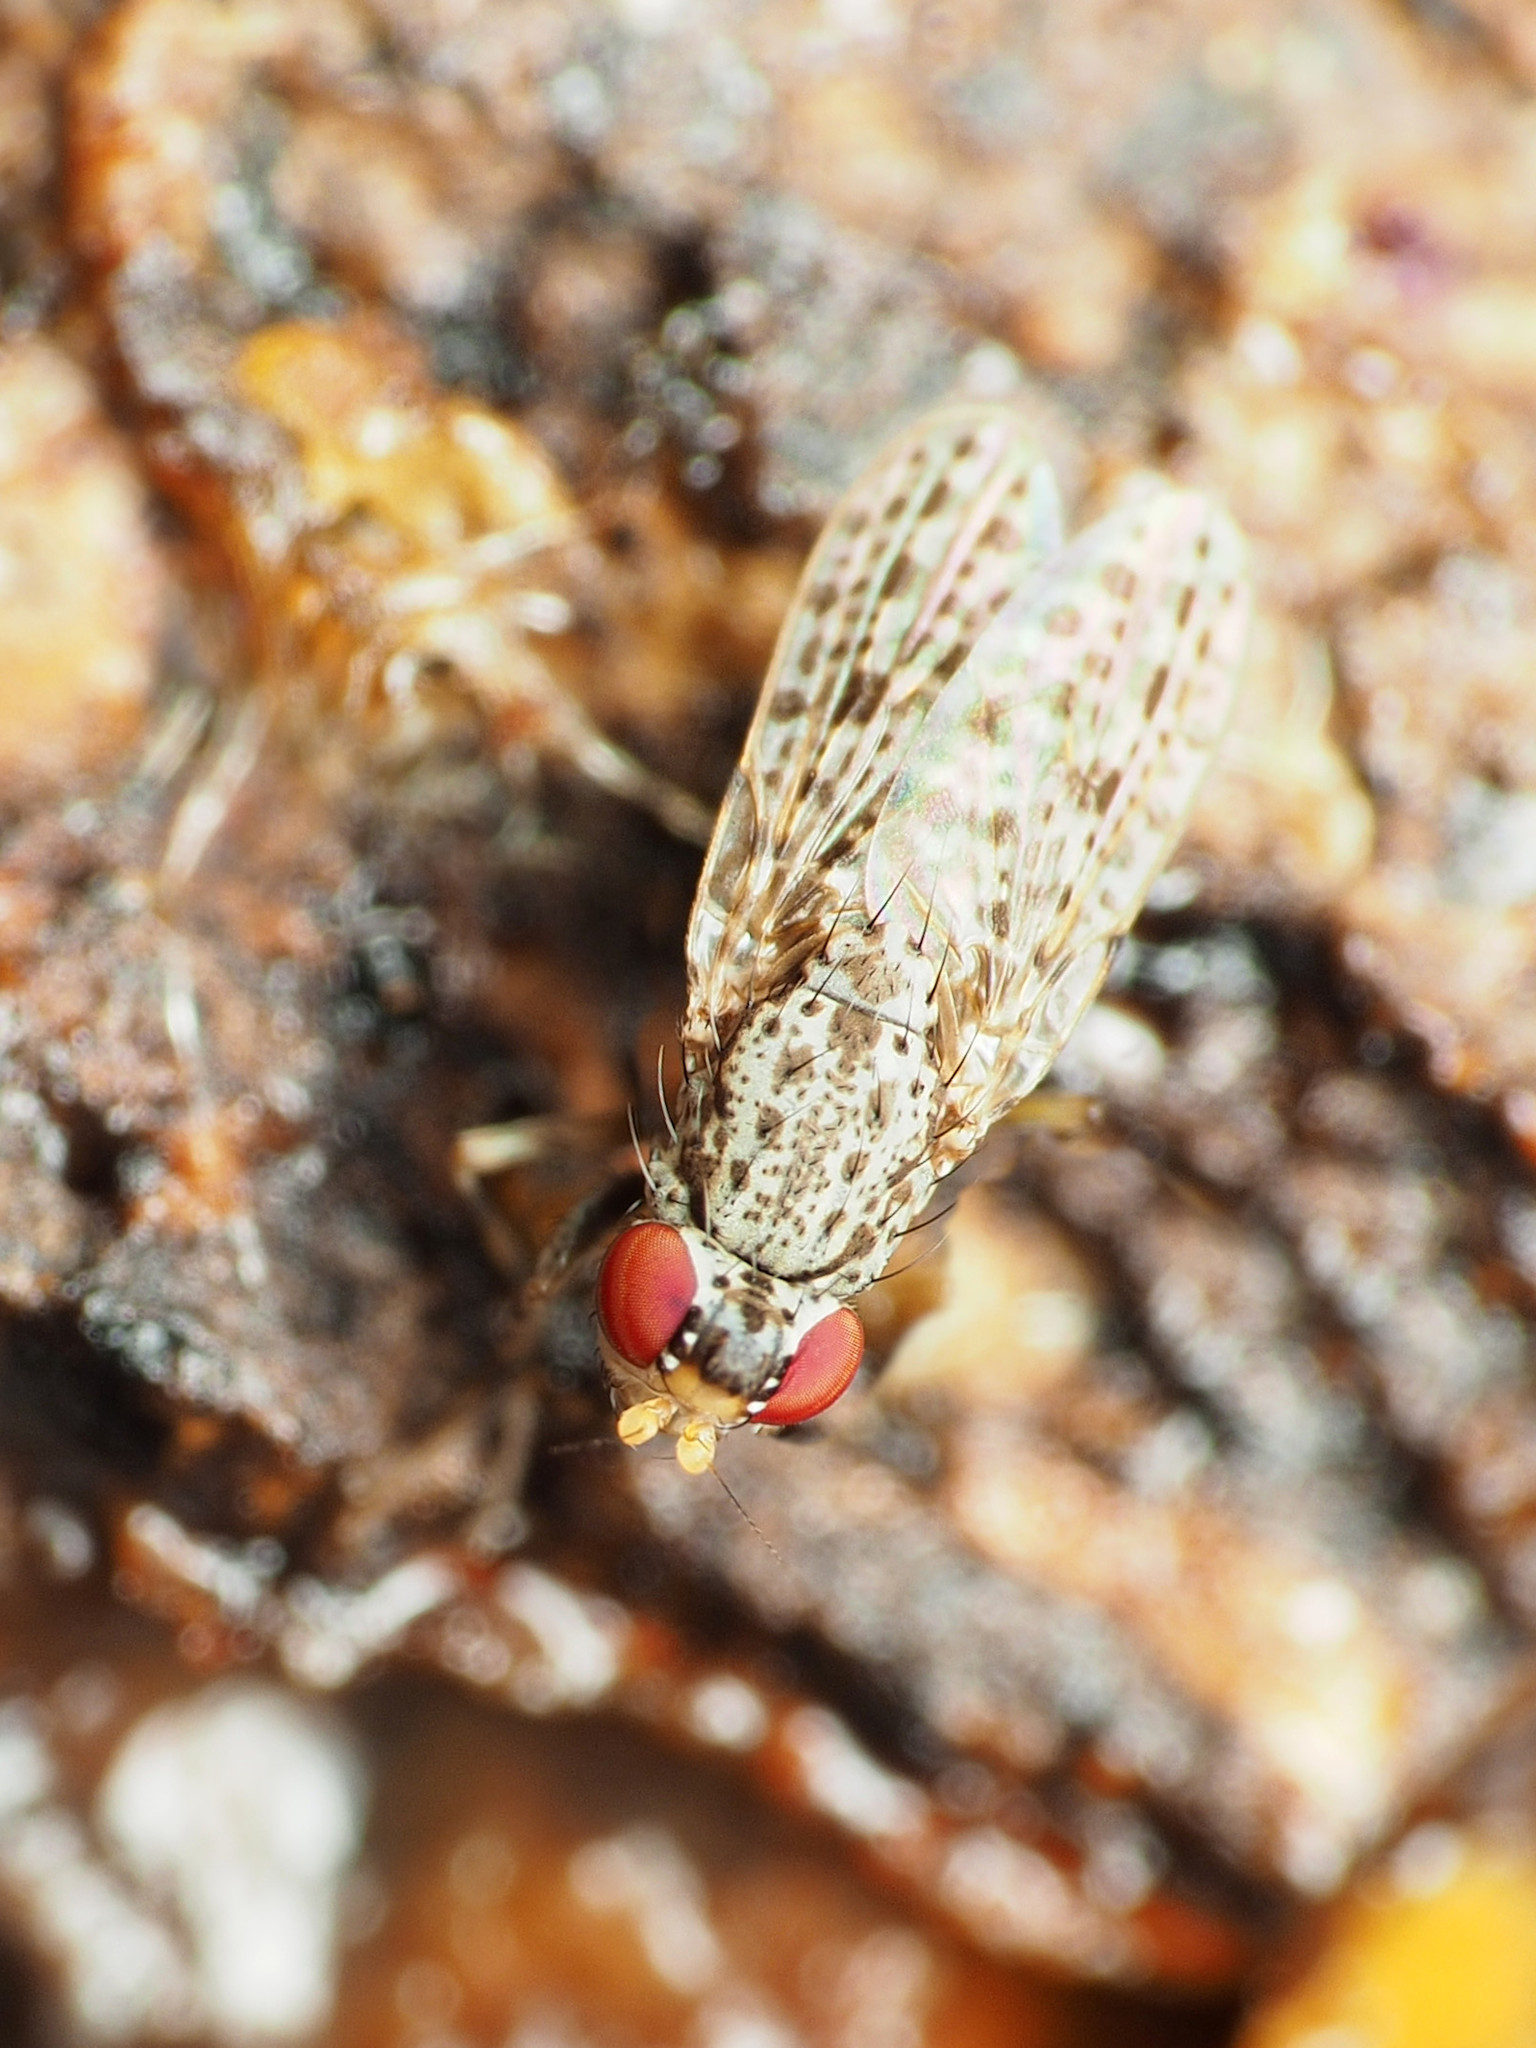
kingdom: Animalia
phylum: Arthropoda
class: Insecta
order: Diptera
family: Odiniidae
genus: Traginops
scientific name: Traginops irroratus
